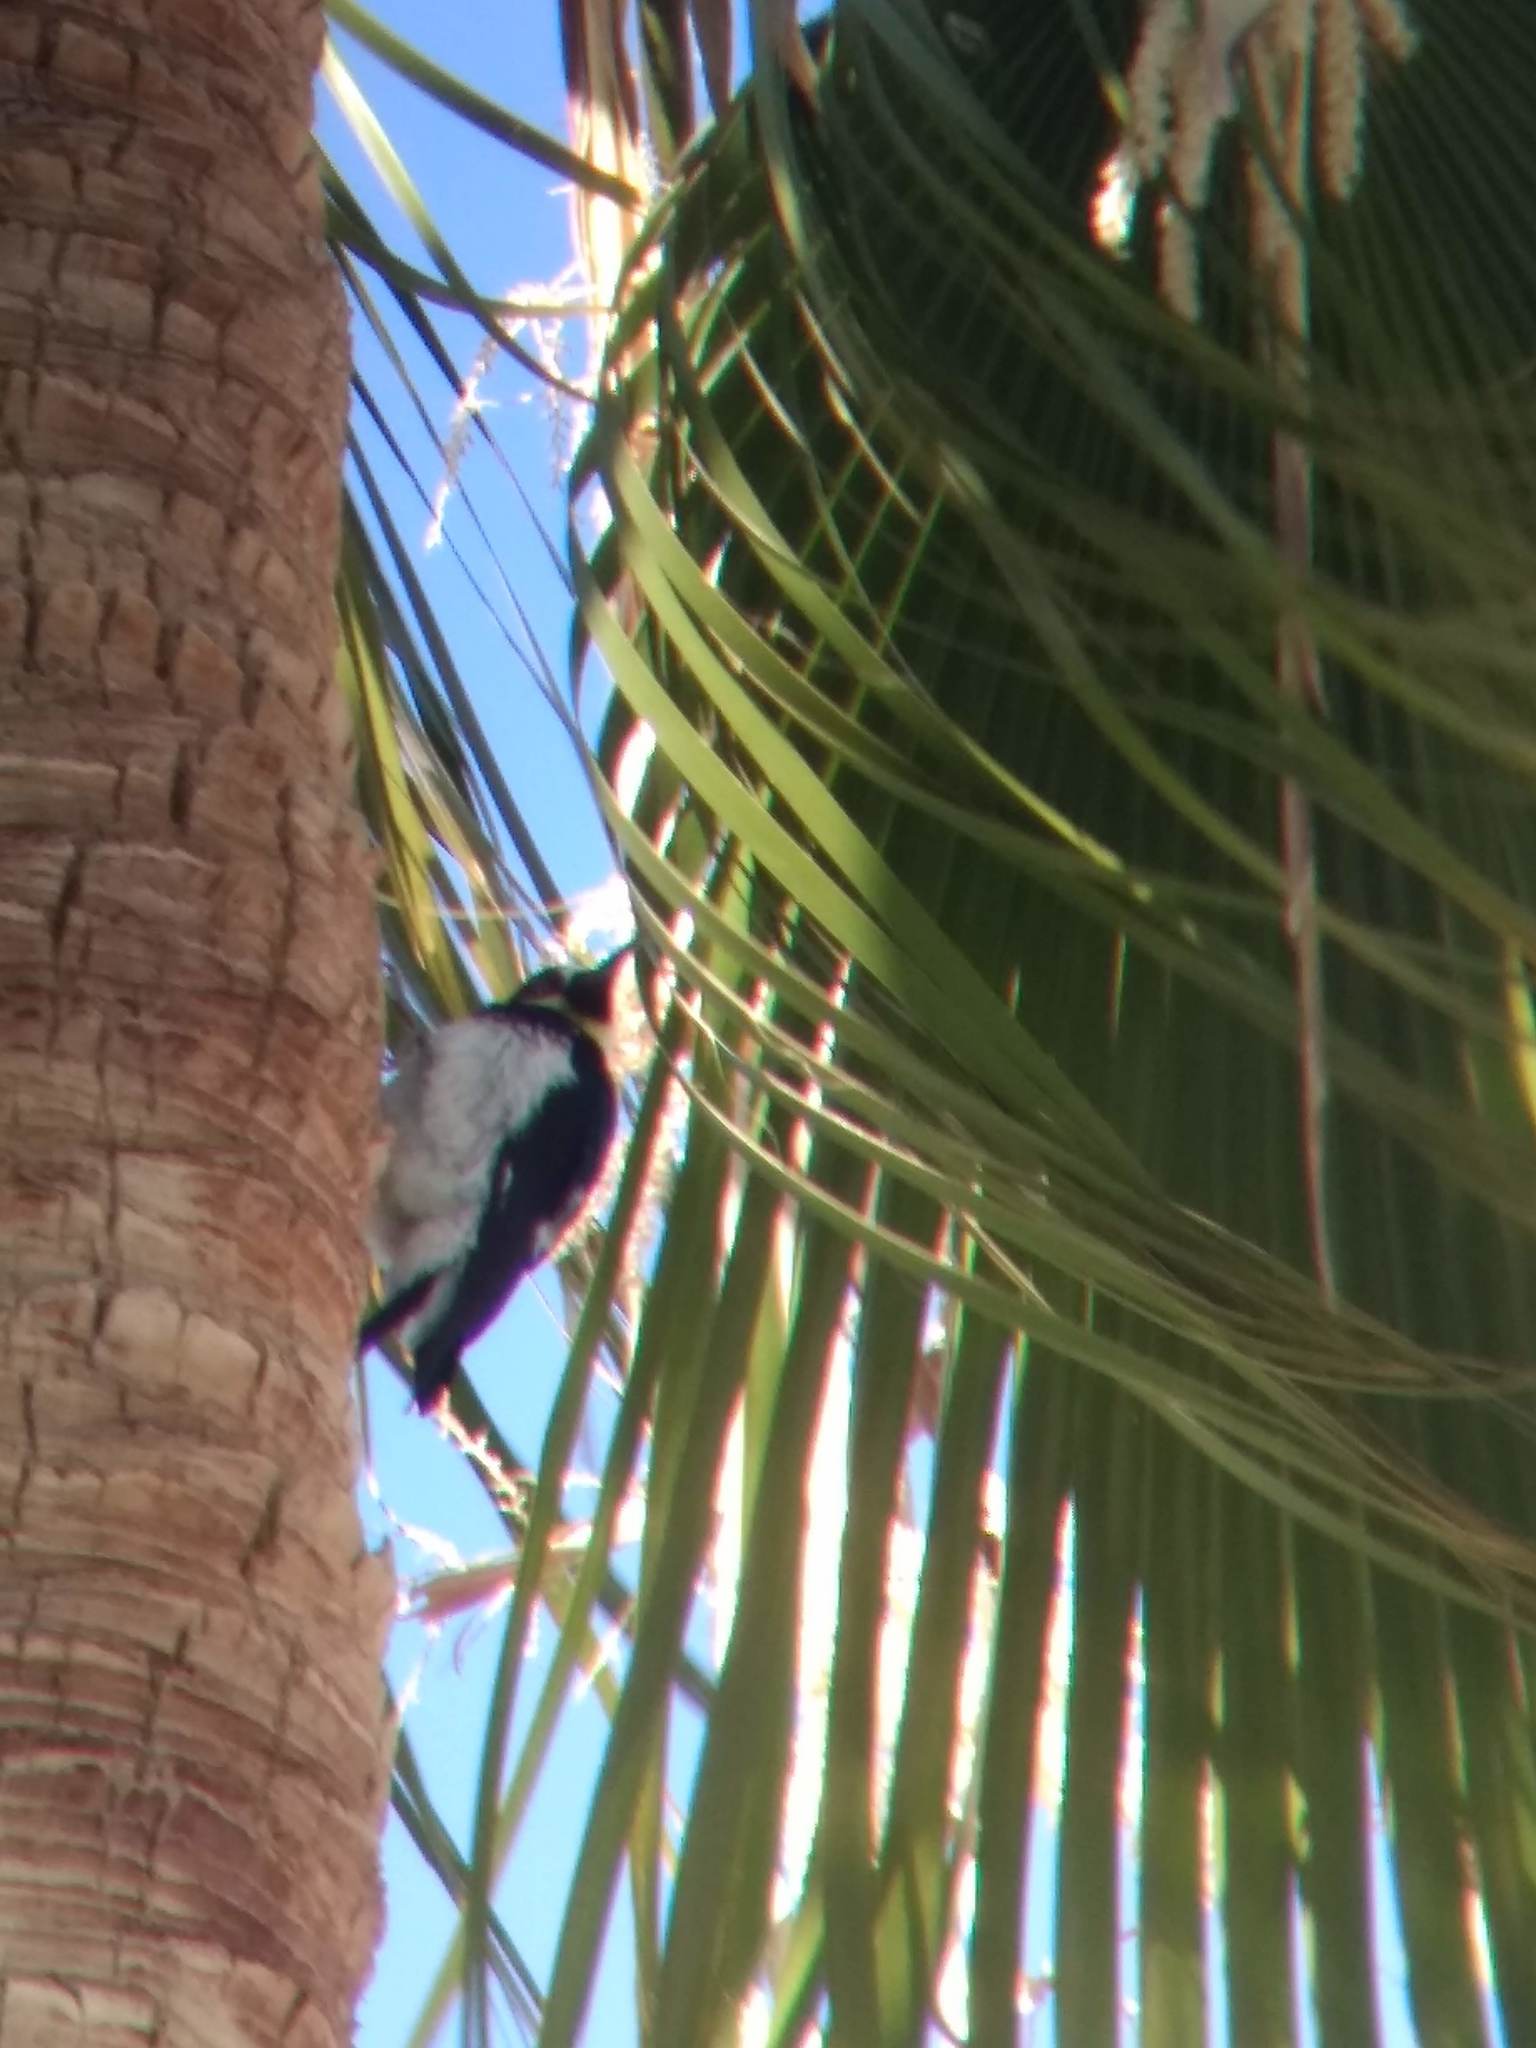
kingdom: Animalia
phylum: Chordata
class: Aves
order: Piciformes
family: Picidae
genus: Melanerpes
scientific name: Melanerpes formicivorus
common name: Acorn woodpecker
